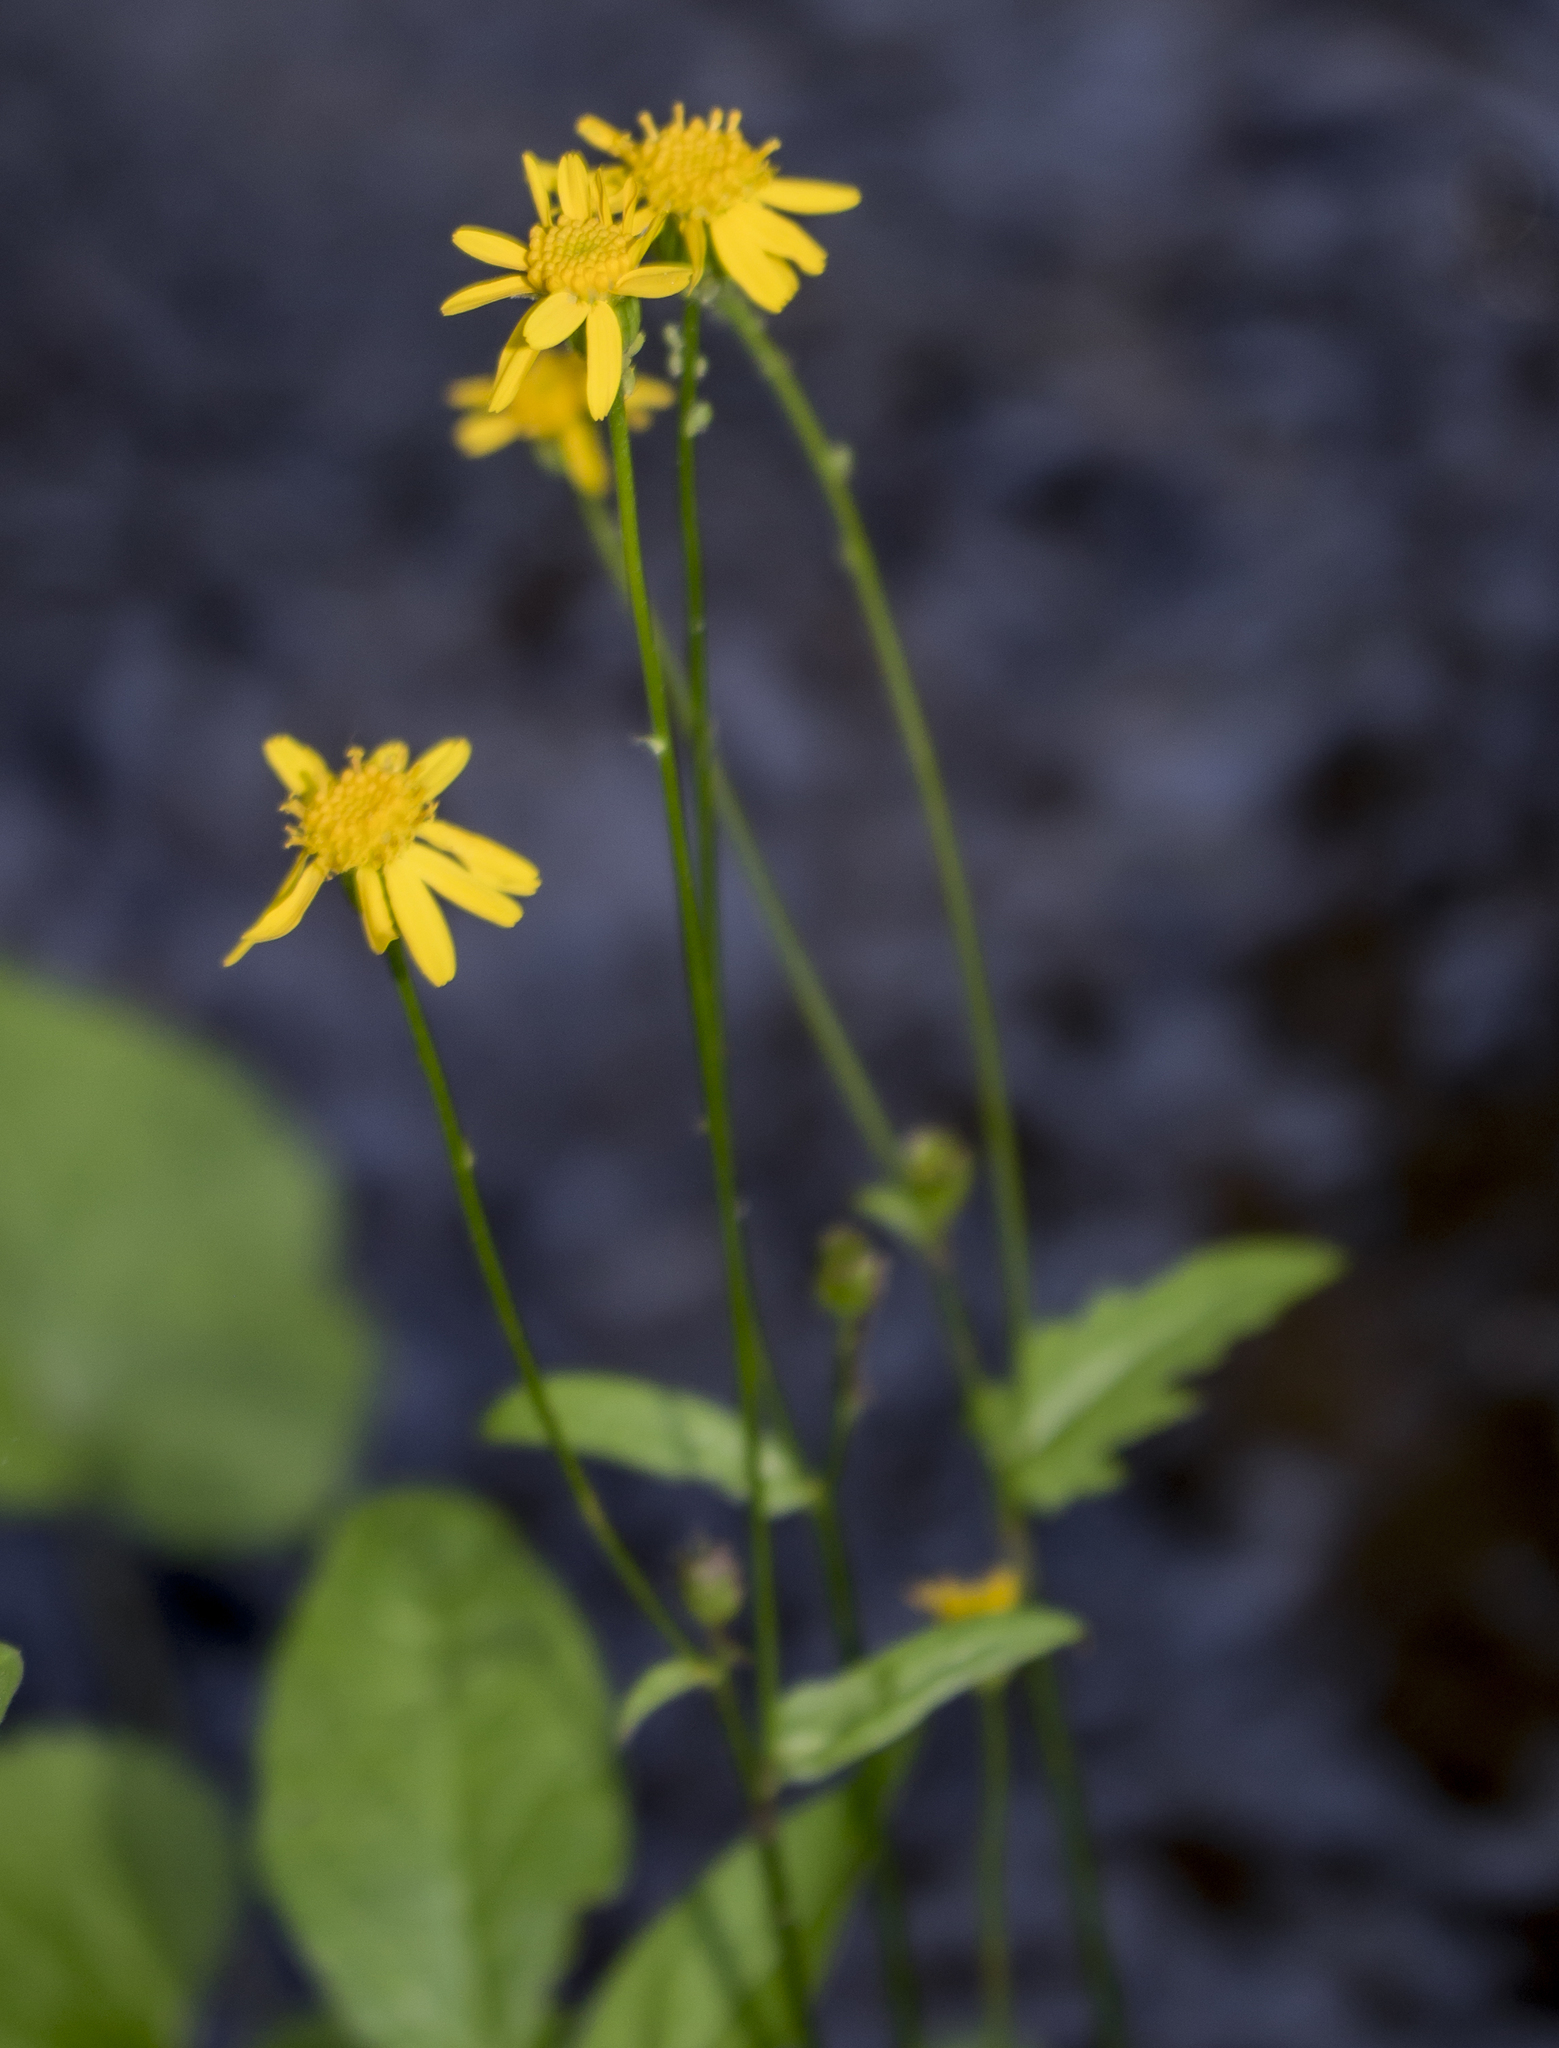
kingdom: Plantae
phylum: Tracheophyta
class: Magnoliopsida
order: Asterales
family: Asteraceae
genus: Packera
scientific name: Packera aurea
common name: Golden groundsel
